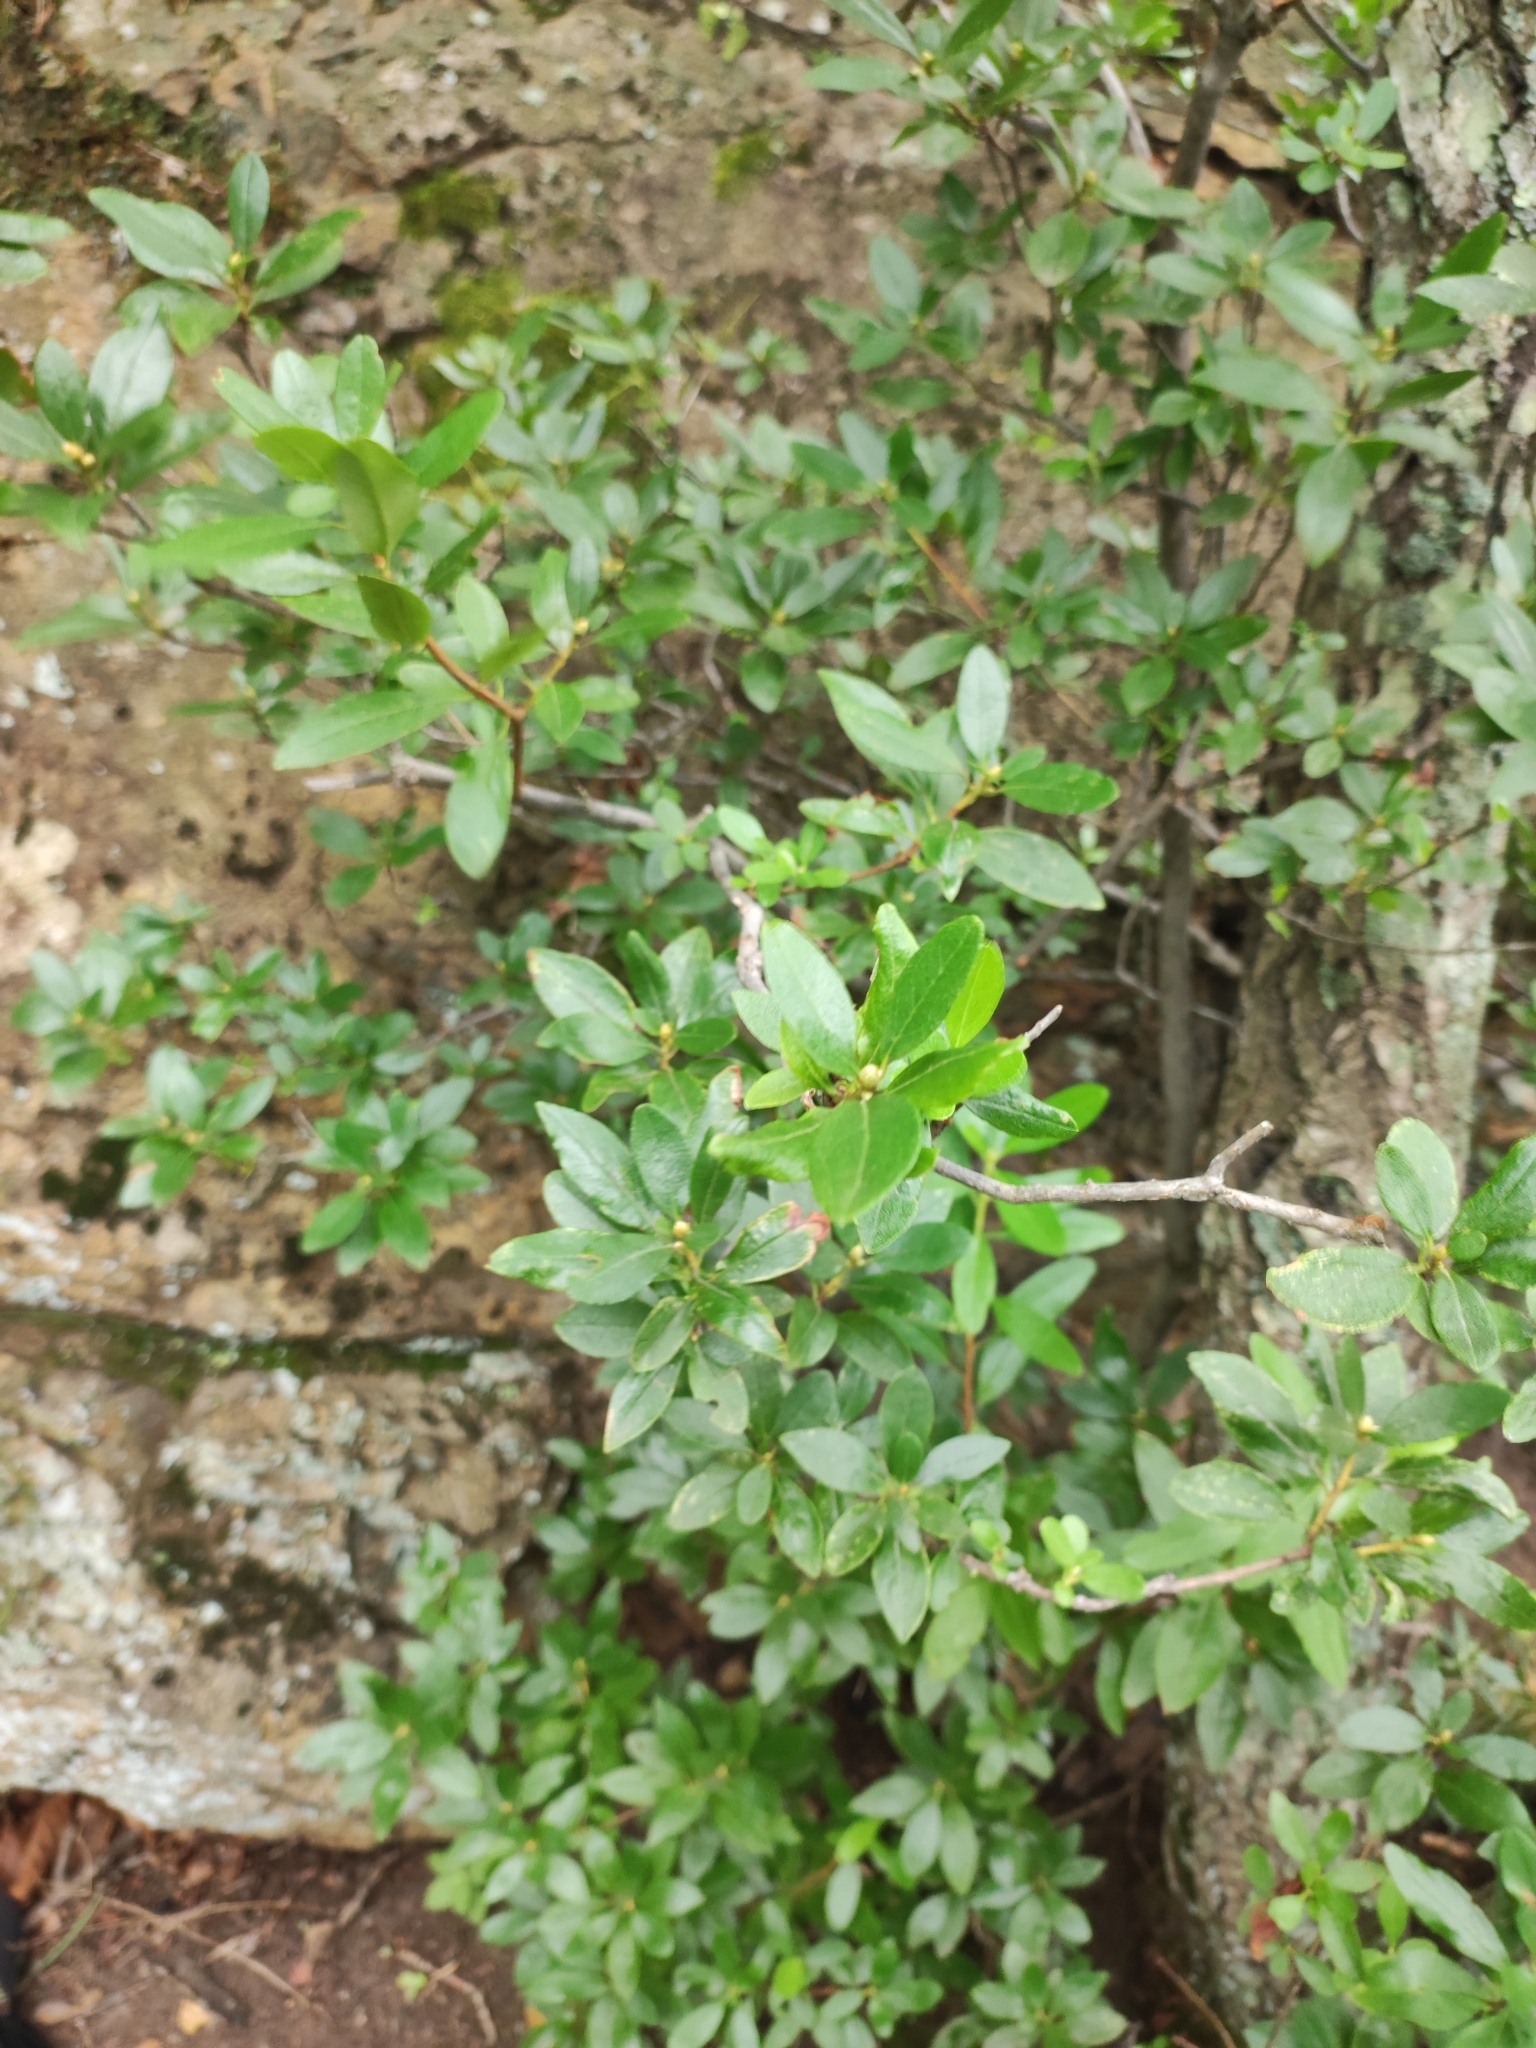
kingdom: Plantae
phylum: Tracheophyta
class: Magnoliopsida
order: Ericales
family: Ericaceae
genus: Rhododendron
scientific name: Rhododendron mucronulatum
